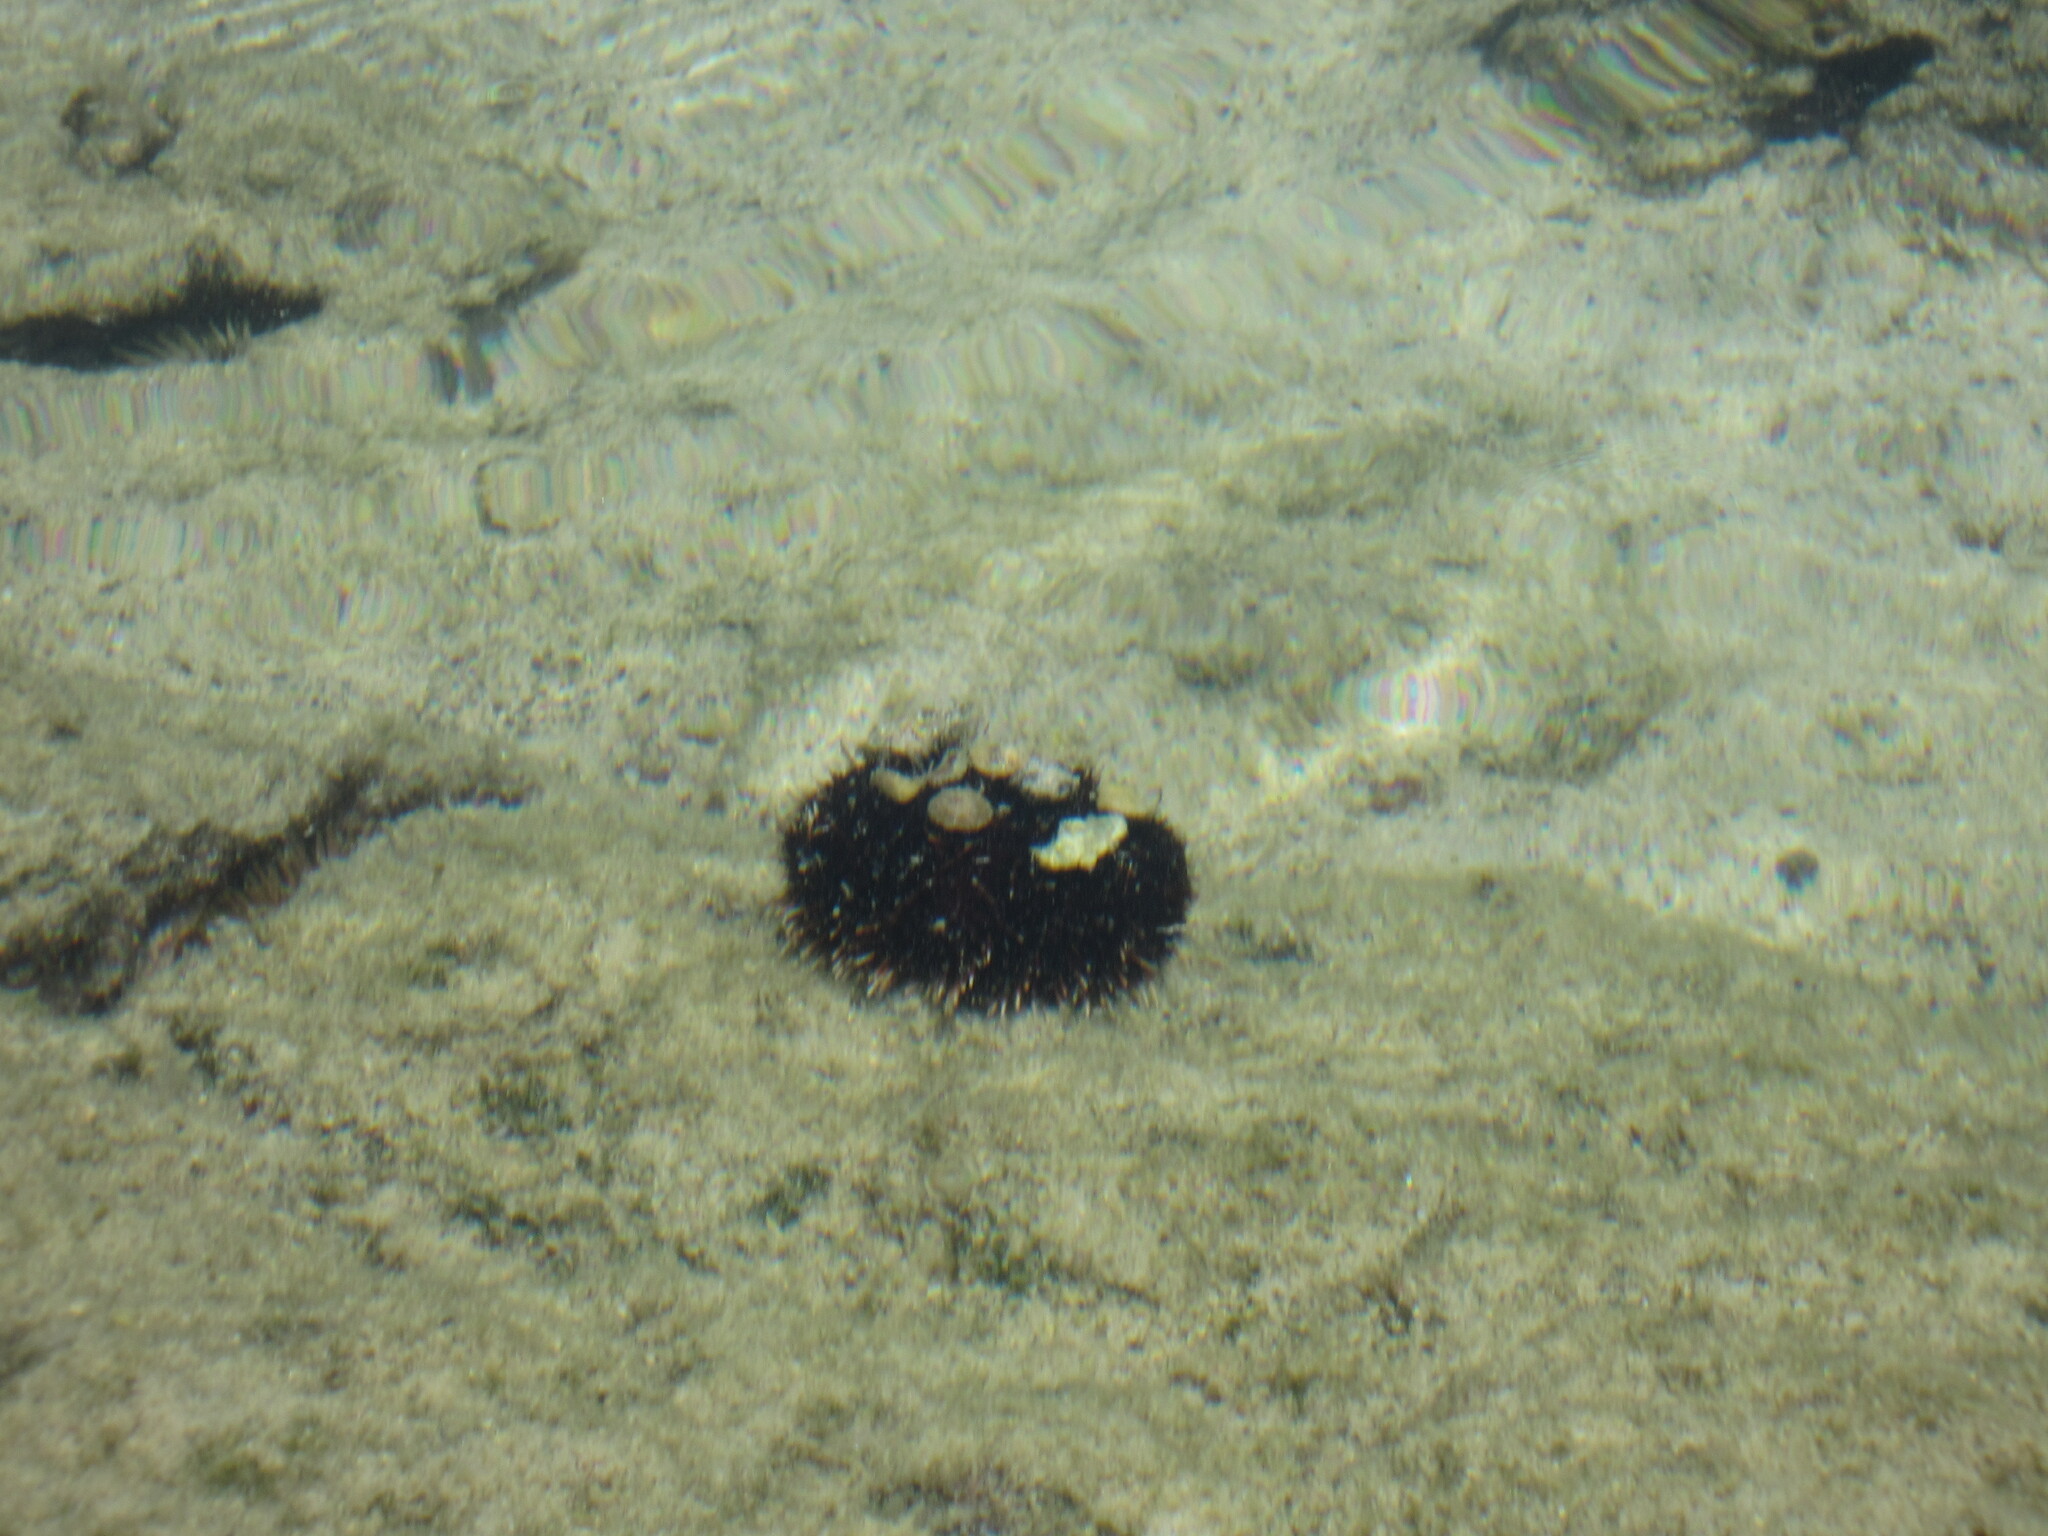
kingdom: Animalia
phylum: Echinodermata
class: Echinoidea
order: Camarodonta
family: Toxopneustidae
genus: Tripneustes
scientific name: Tripneustes gratilla
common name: Bischofsmützenseeigel
